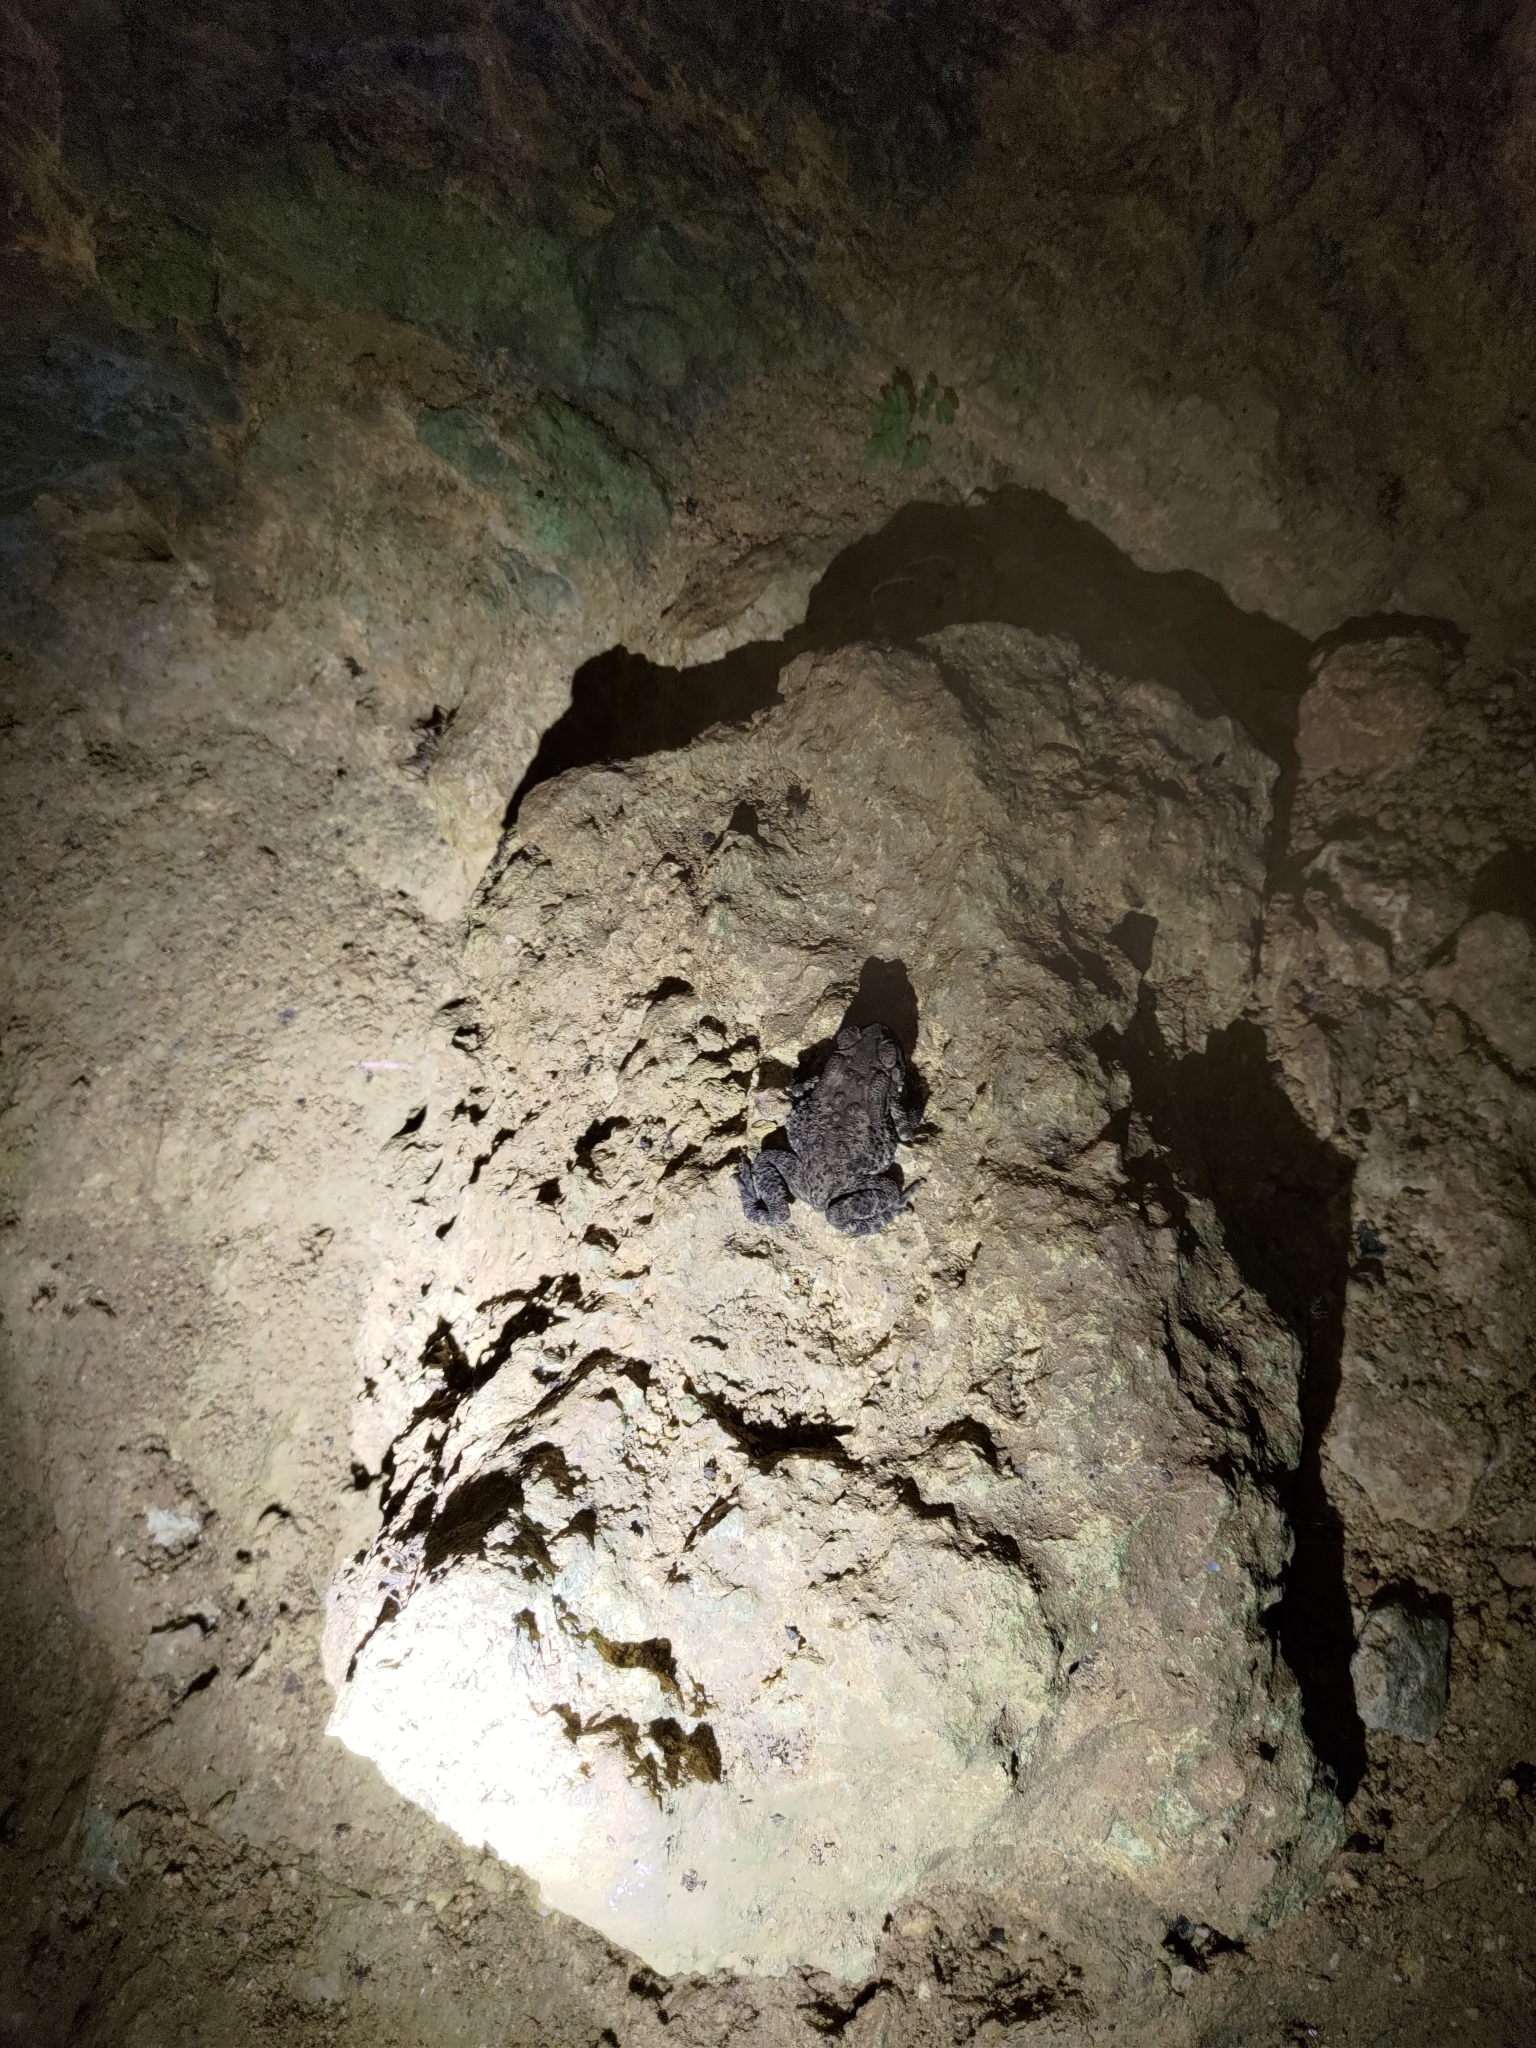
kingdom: Animalia
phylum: Chordata
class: Amphibia
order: Anura
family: Bufonidae
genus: Duttaphrynus
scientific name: Duttaphrynus melanostictus
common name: Common sunda toad
